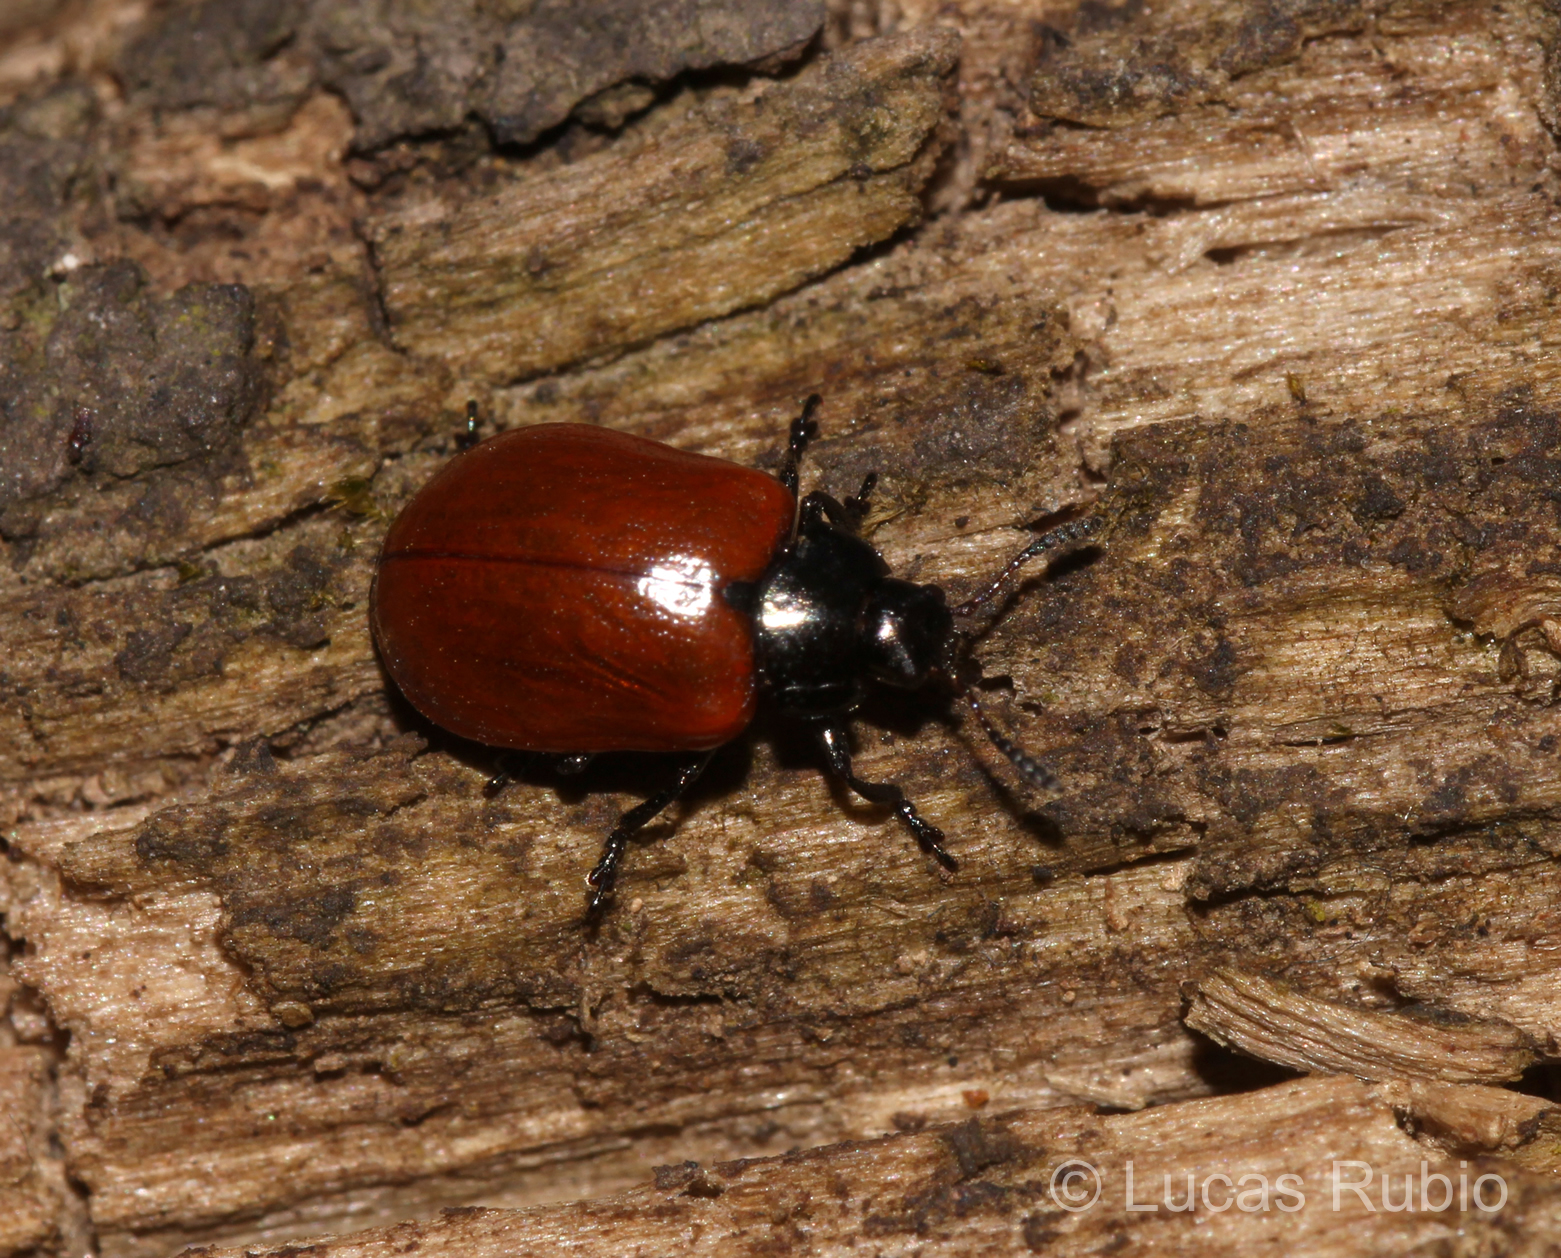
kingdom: Animalia
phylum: Arthropoda
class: Insecta
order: Coleoptera
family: Chrysomelidae
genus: Plagiodera
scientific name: Plagiodera
